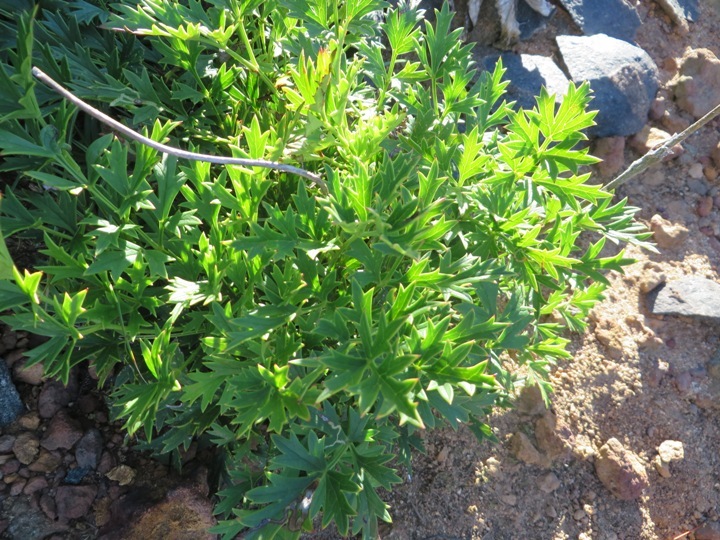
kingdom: Plantae
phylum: Tracheophyta
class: Magnoliopsida
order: Ranunculales
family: Ranunculaceae
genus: Knowltonia
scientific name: Knowltonia tenuifolia
